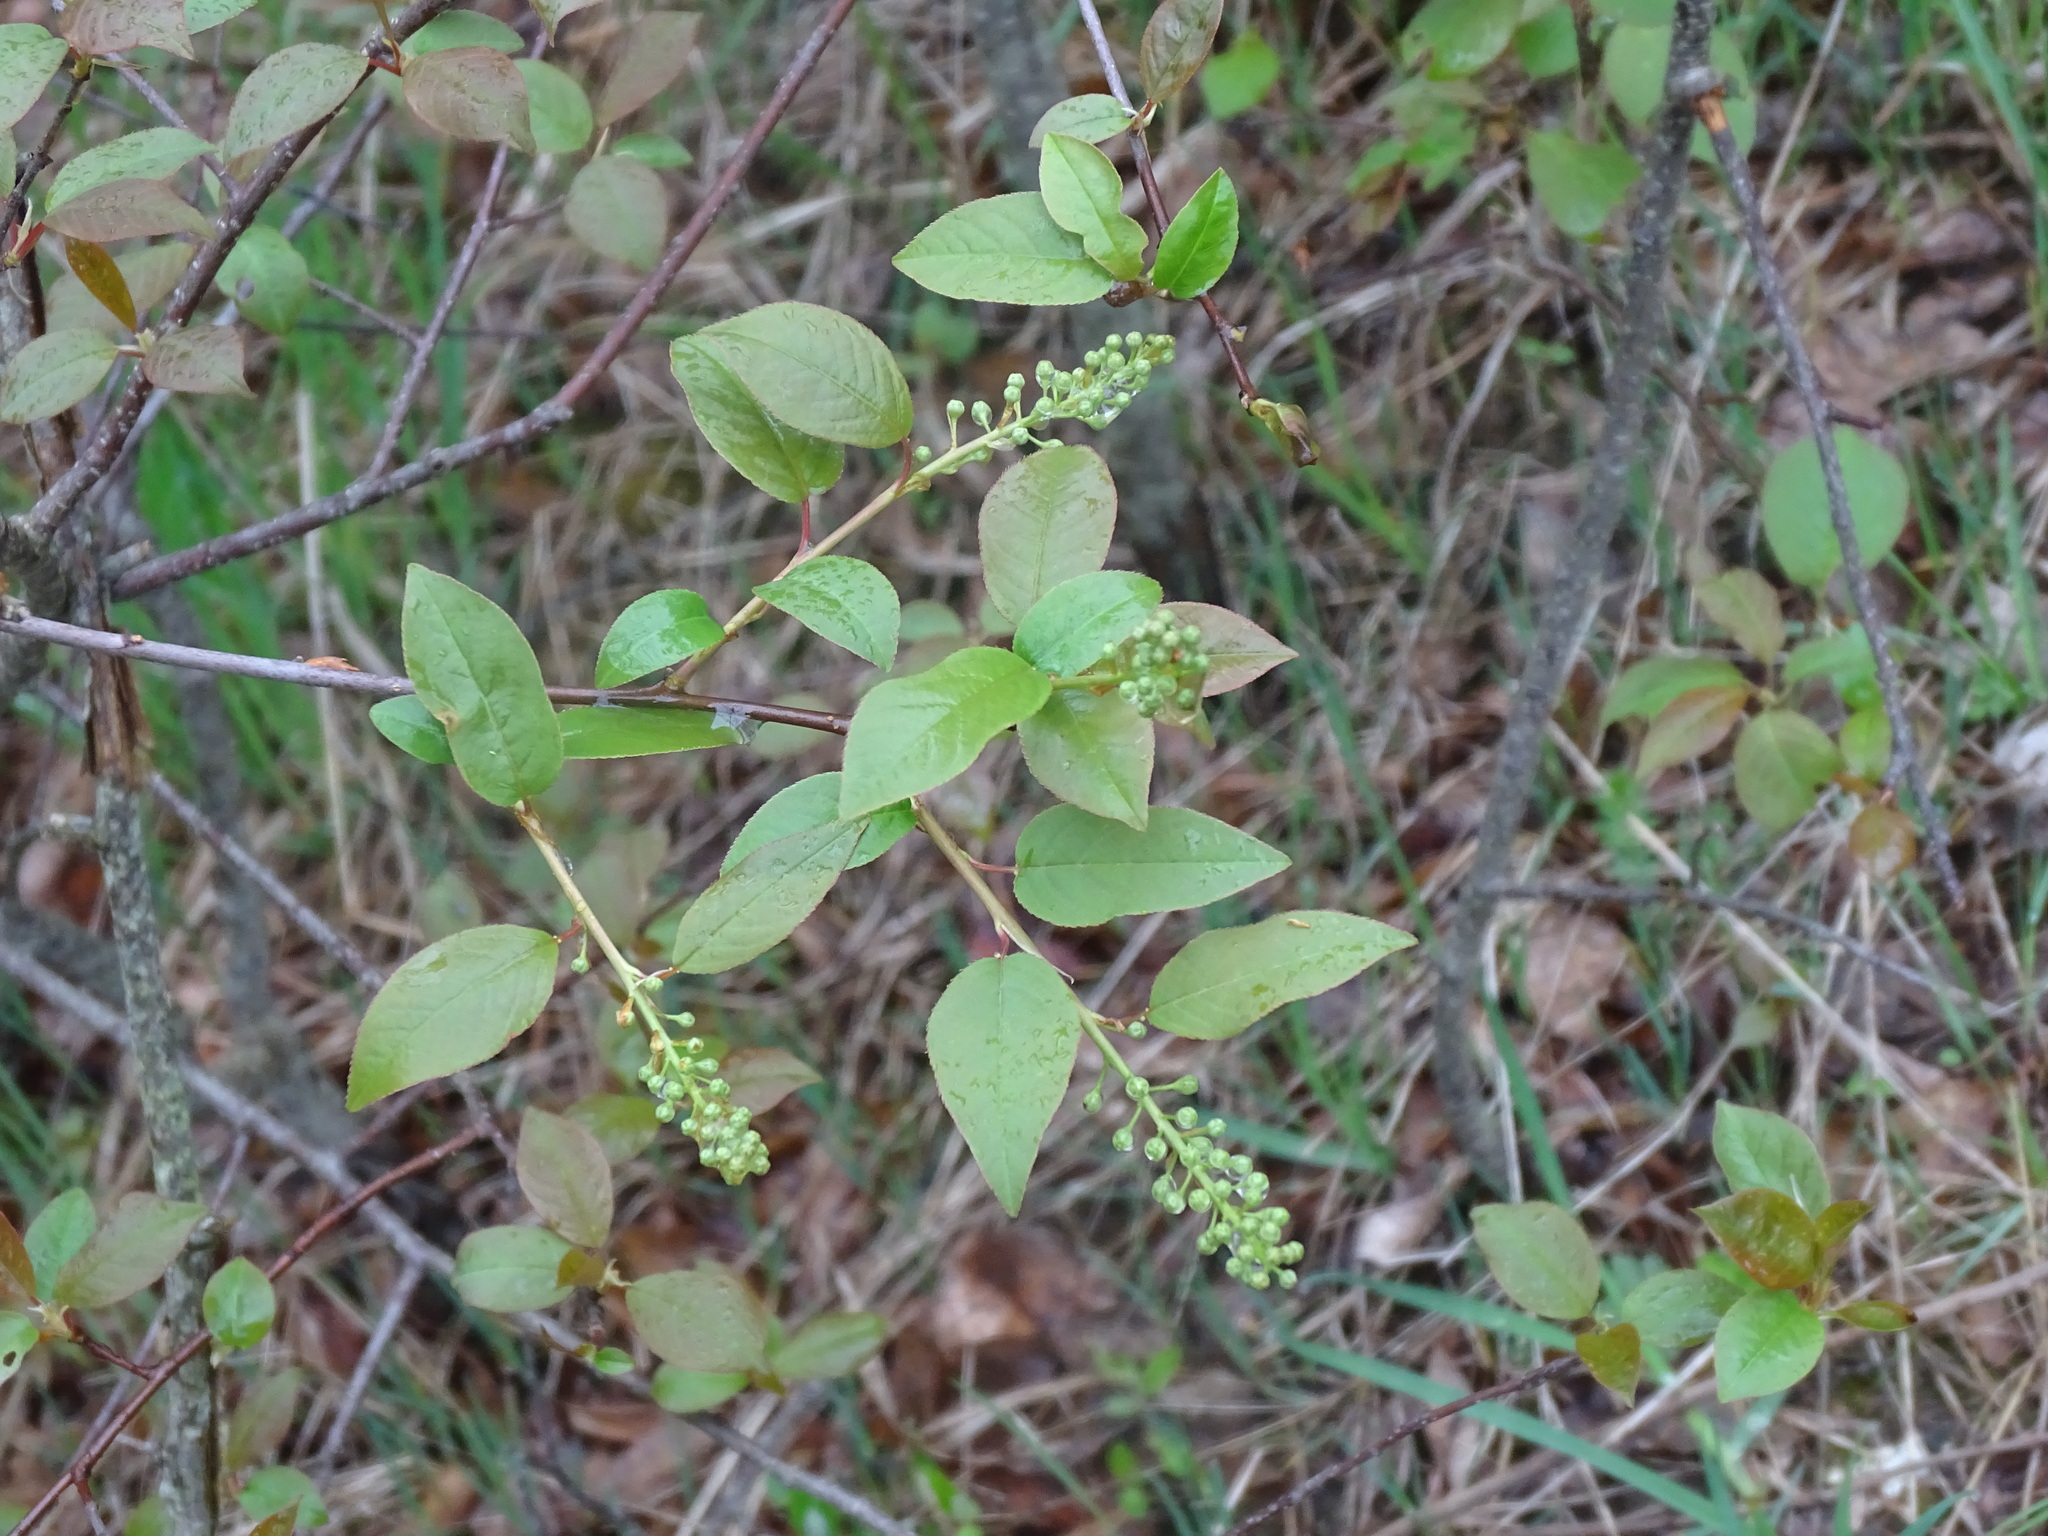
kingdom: Plantae
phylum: Tracheophyta
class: Magnoliopsida
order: Rosales
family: Rosaceae
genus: Prunus
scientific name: Prunus virginiana
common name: Chokecherry
